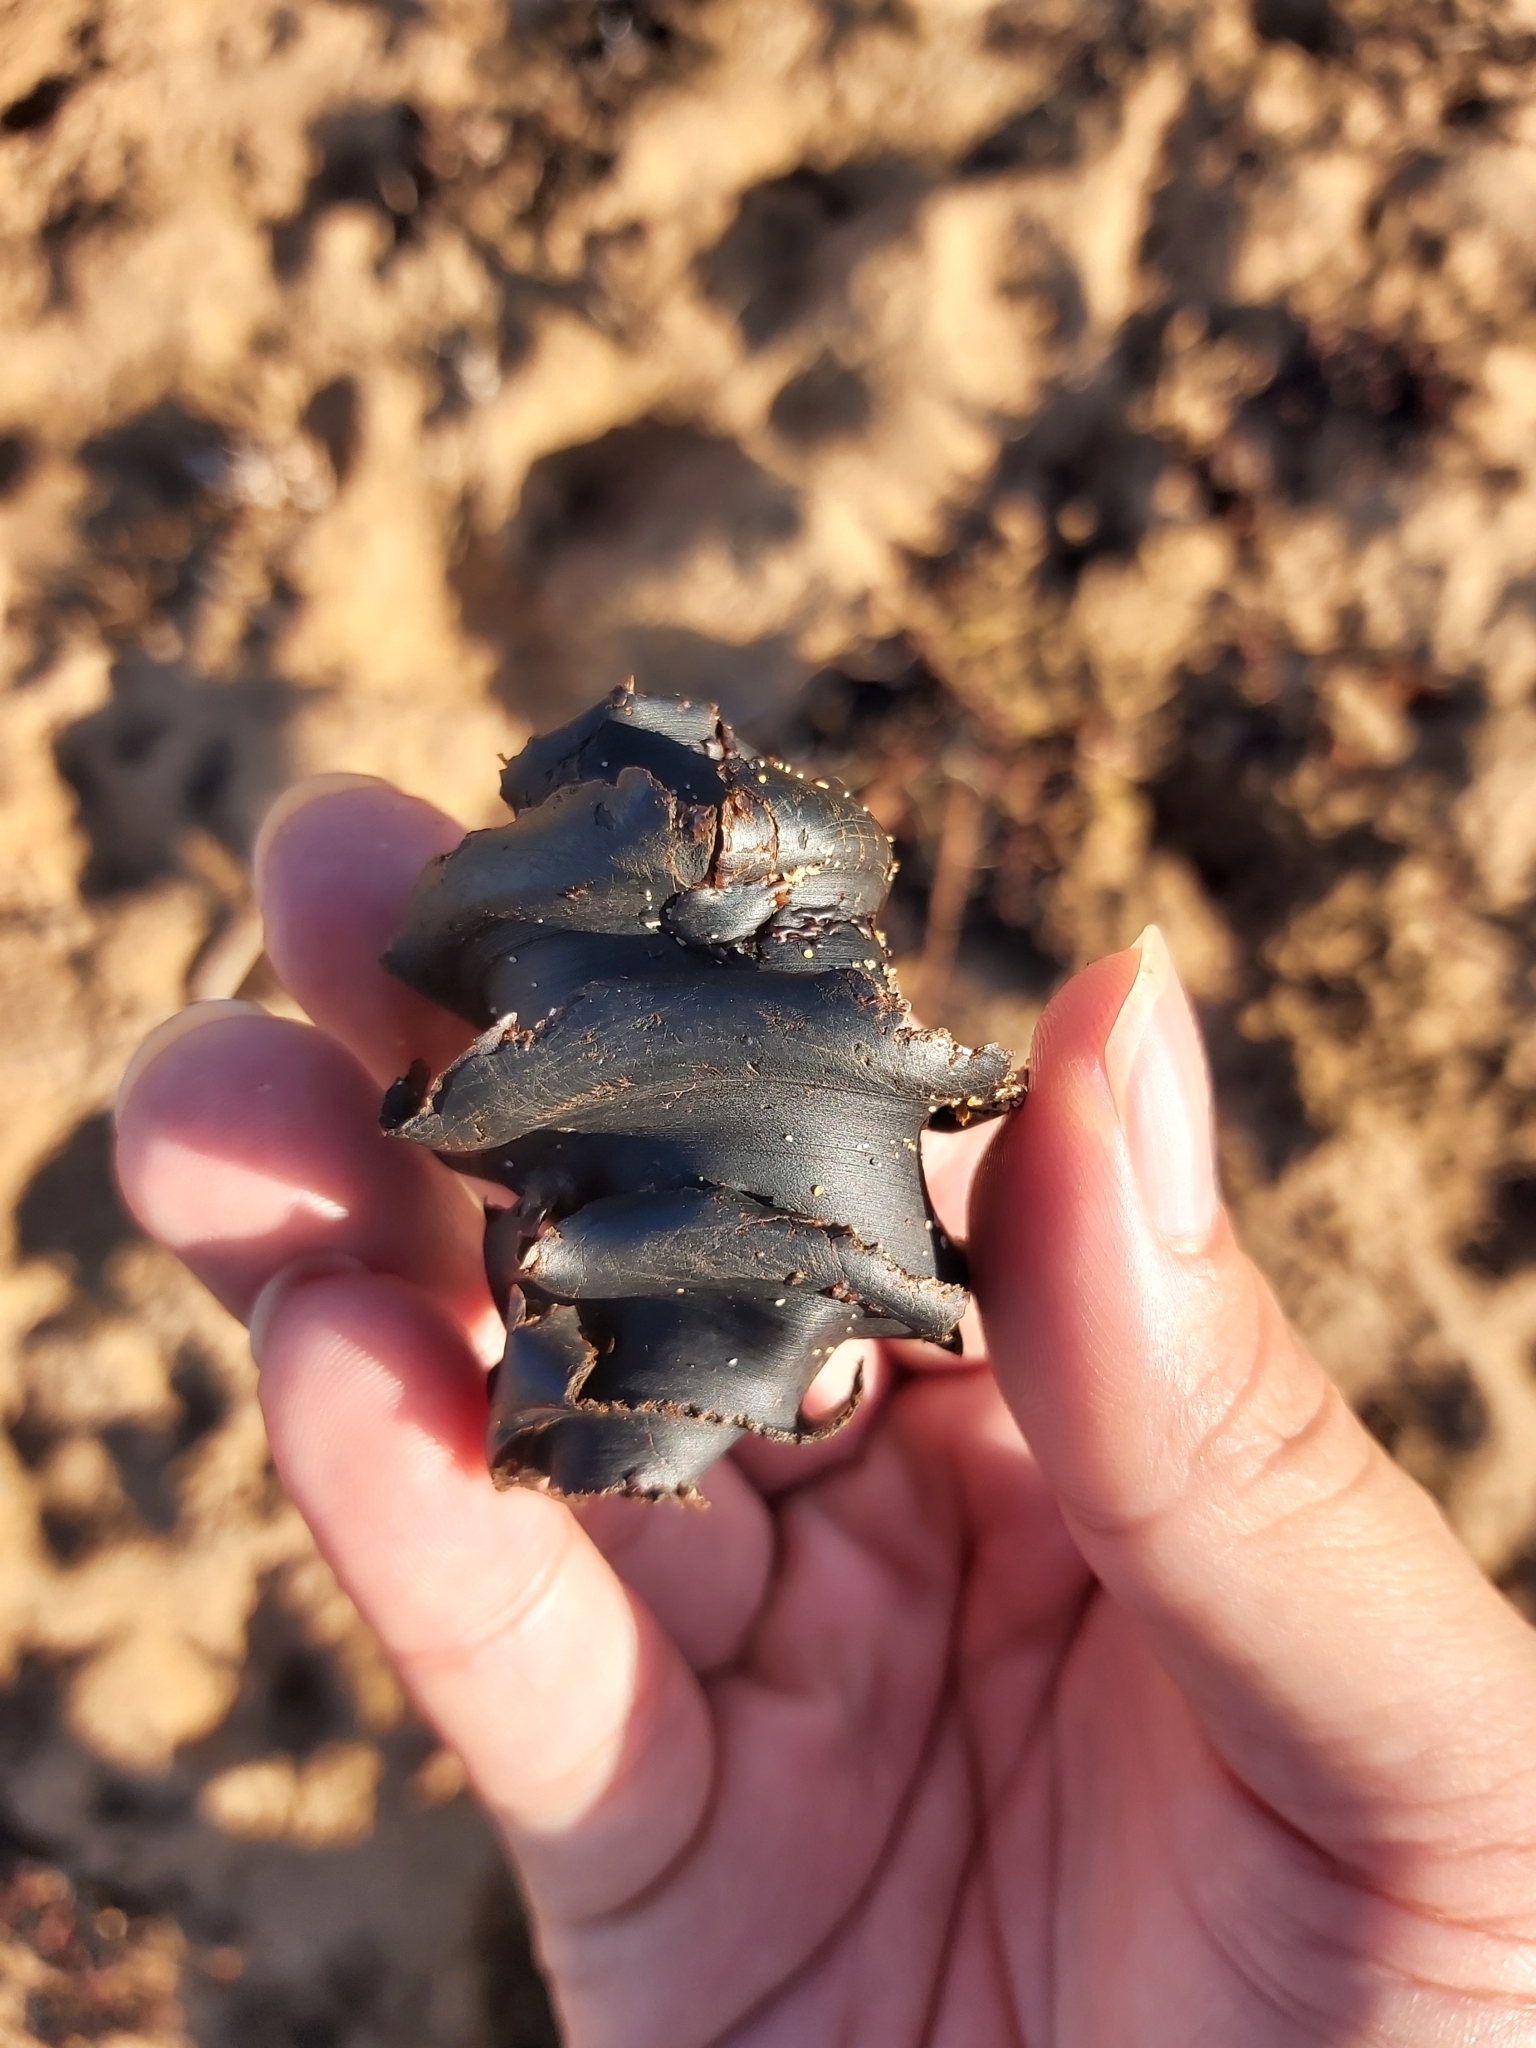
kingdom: Animalia
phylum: Chordata
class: Elasmobranchii
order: Heterodontiformes
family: Heterodontidae
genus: Heterodontus
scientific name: Heterodontus galeatus
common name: Crested bullhead shark
